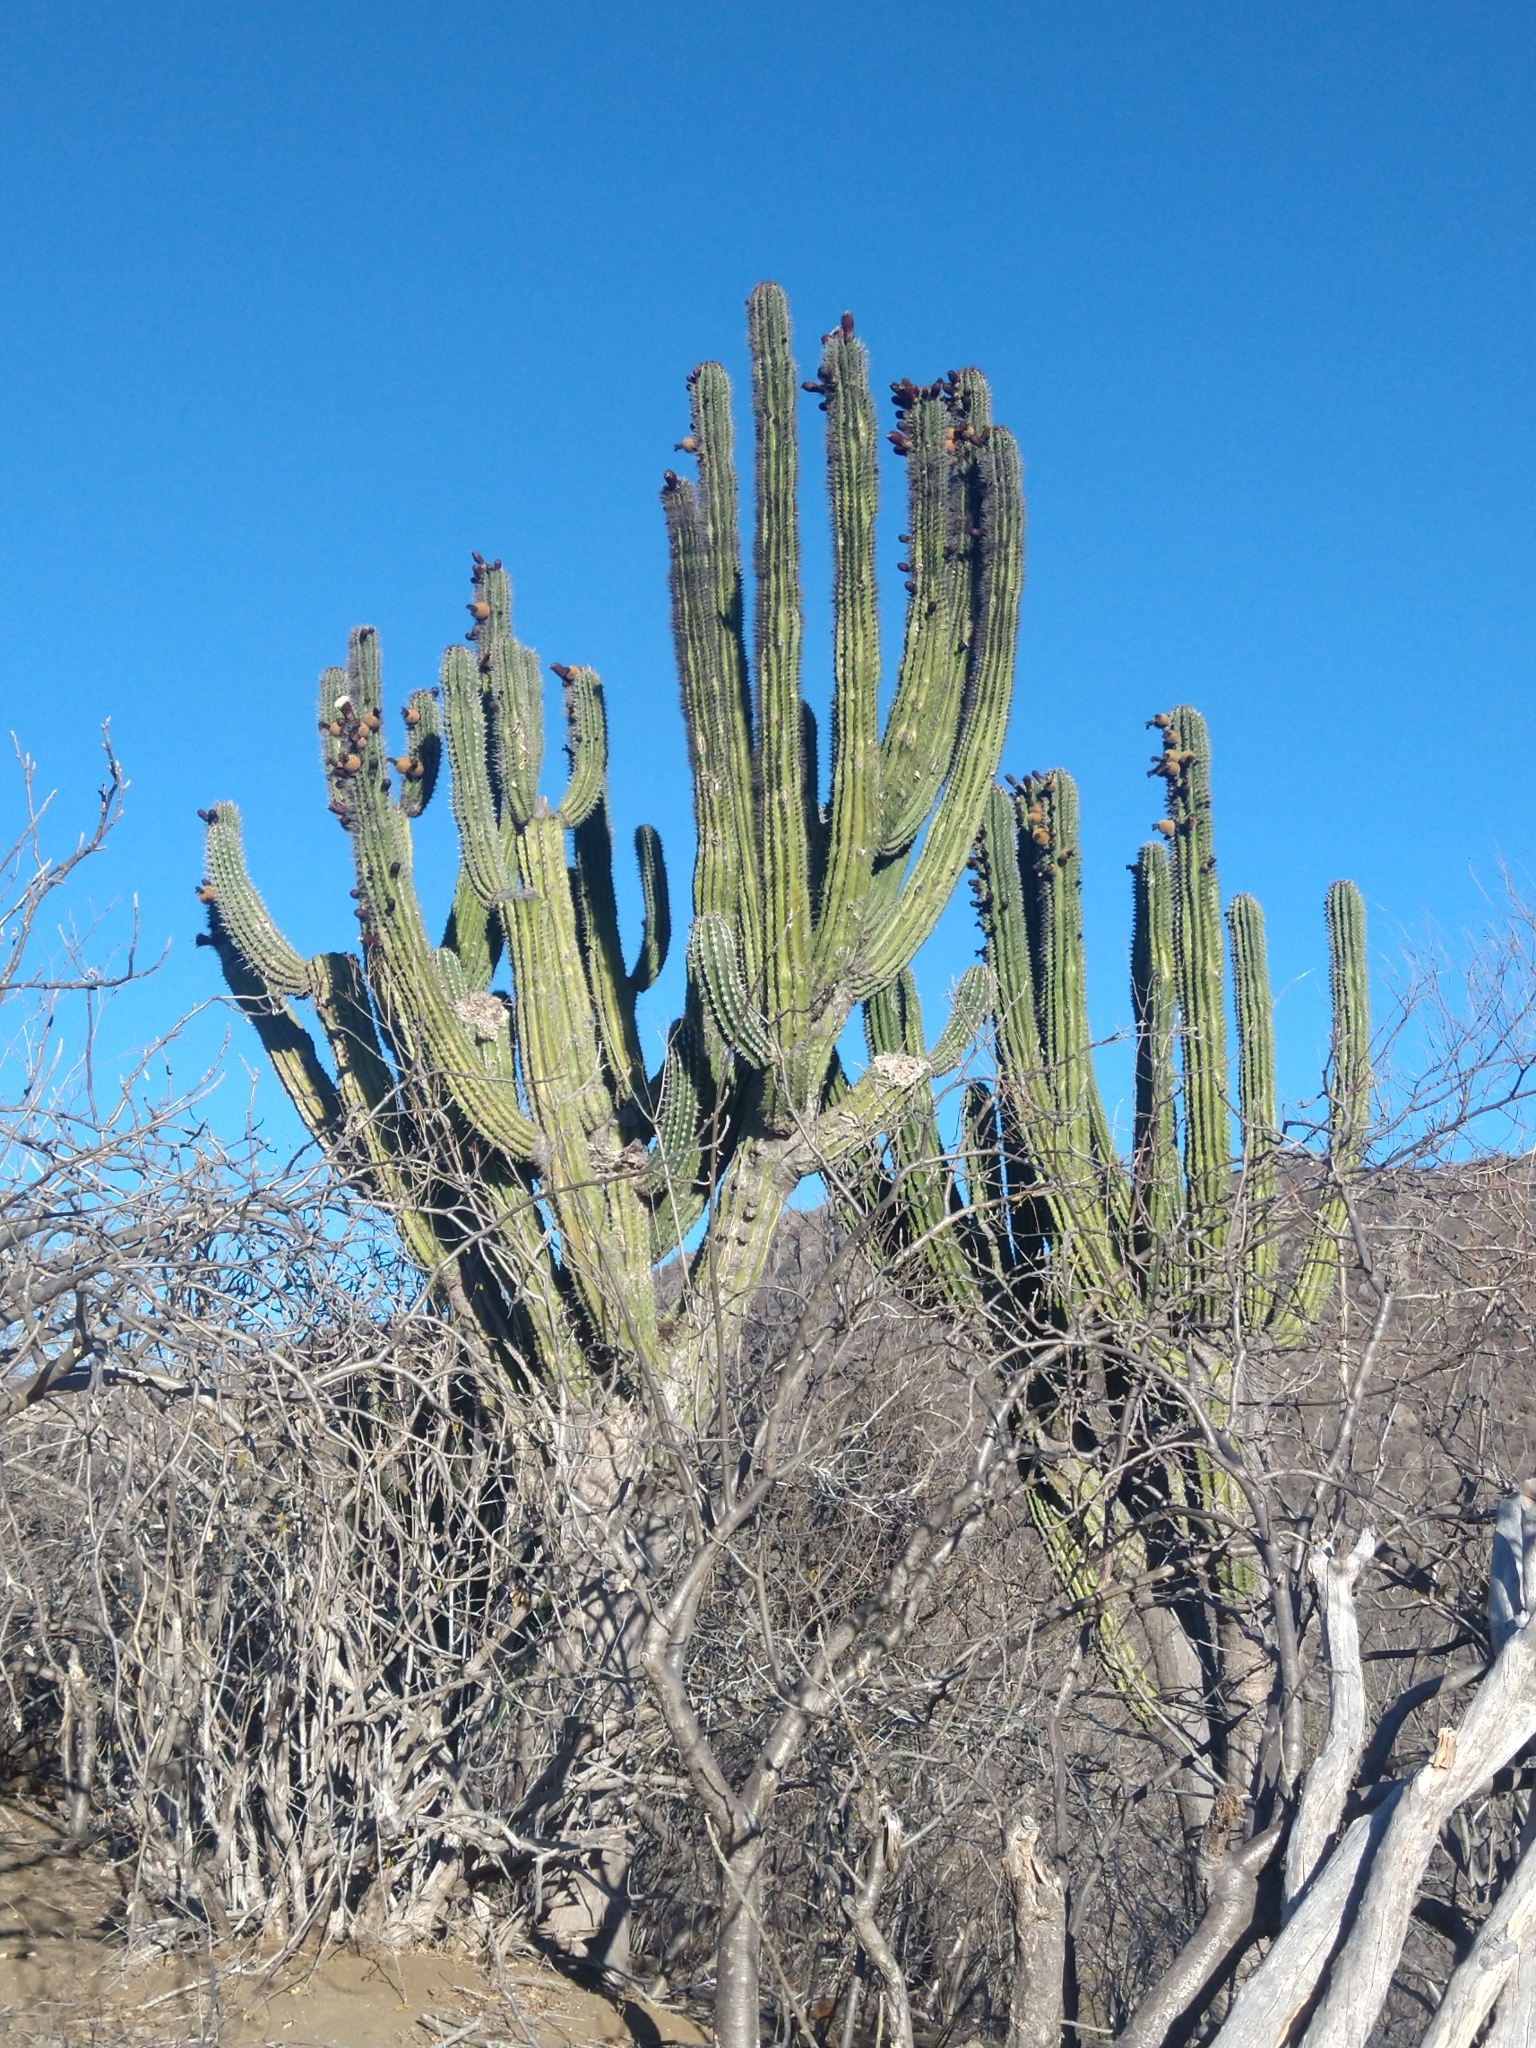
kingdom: Plantae
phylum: Tracheophyta
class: Magnoliopsida
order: Caryophyllales
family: Cactaceae
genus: Pachycereus
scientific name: Pachycereus pecten-aboriginum
